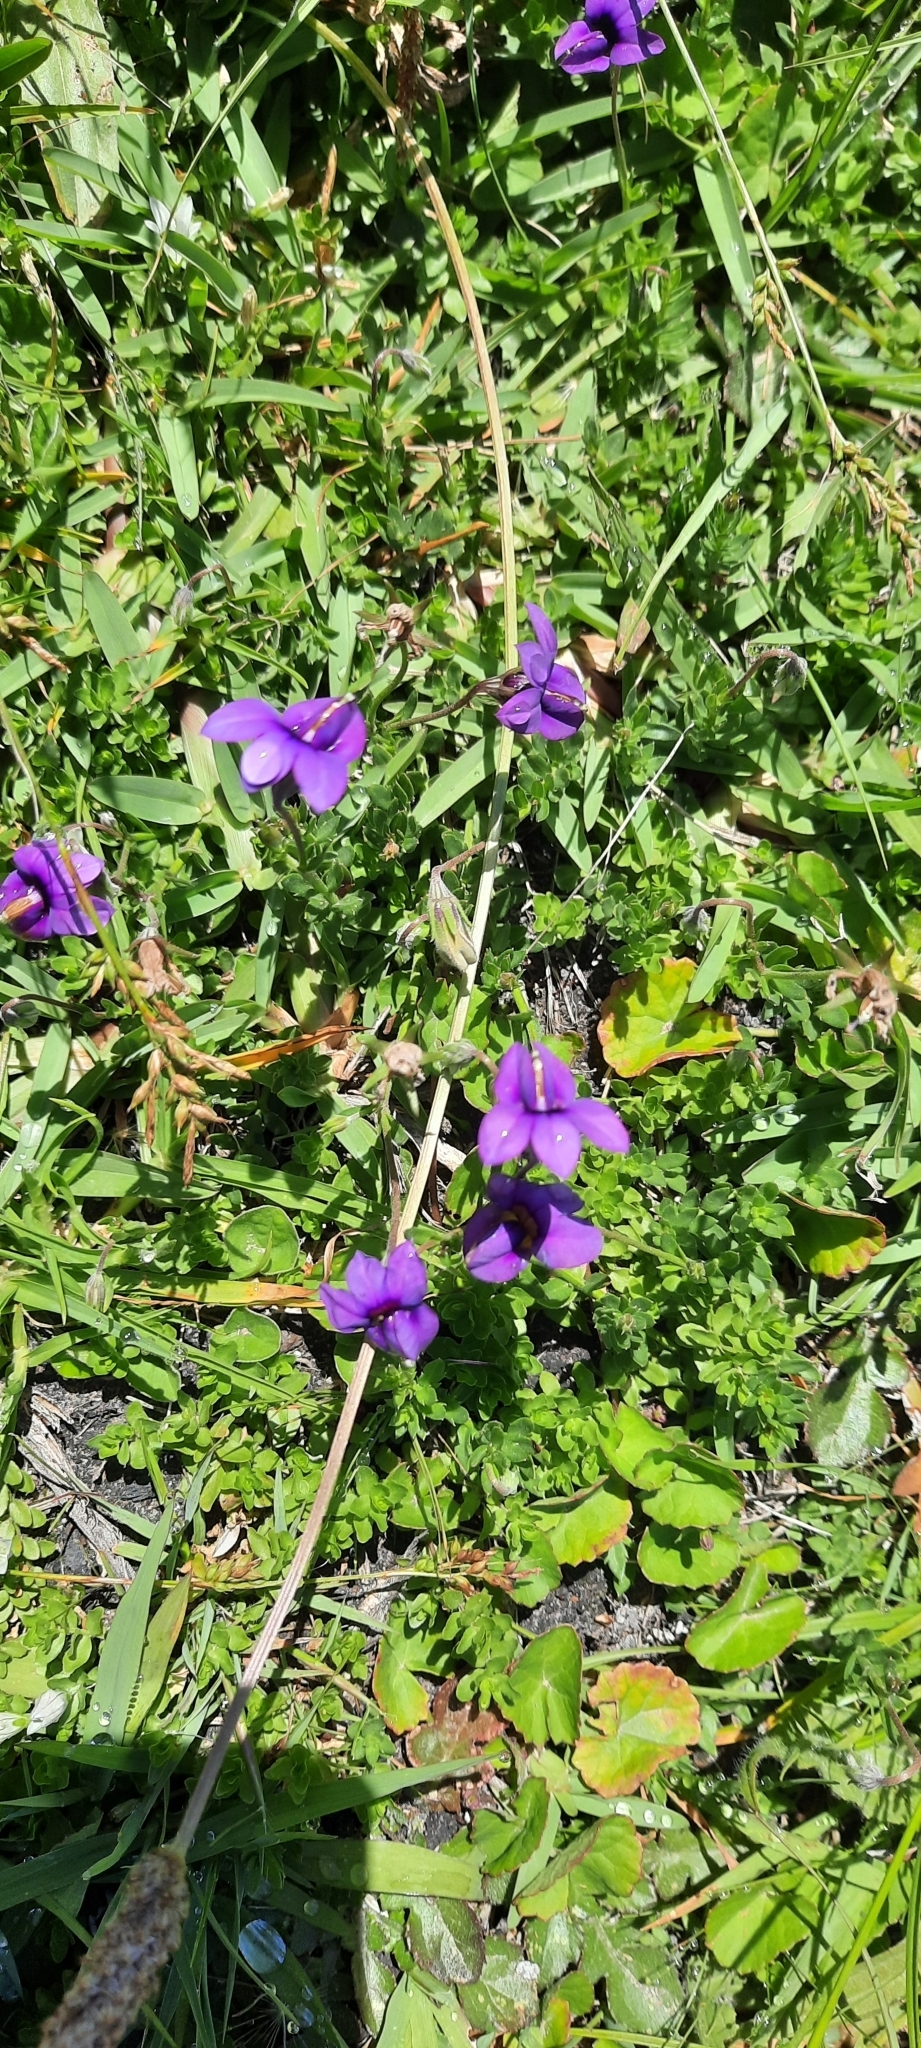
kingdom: Plantae
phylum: Tracheophyta
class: Magnoliopsida
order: Asterales
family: Campanulaceae
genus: Monopsis
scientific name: Monopsis unidentata
